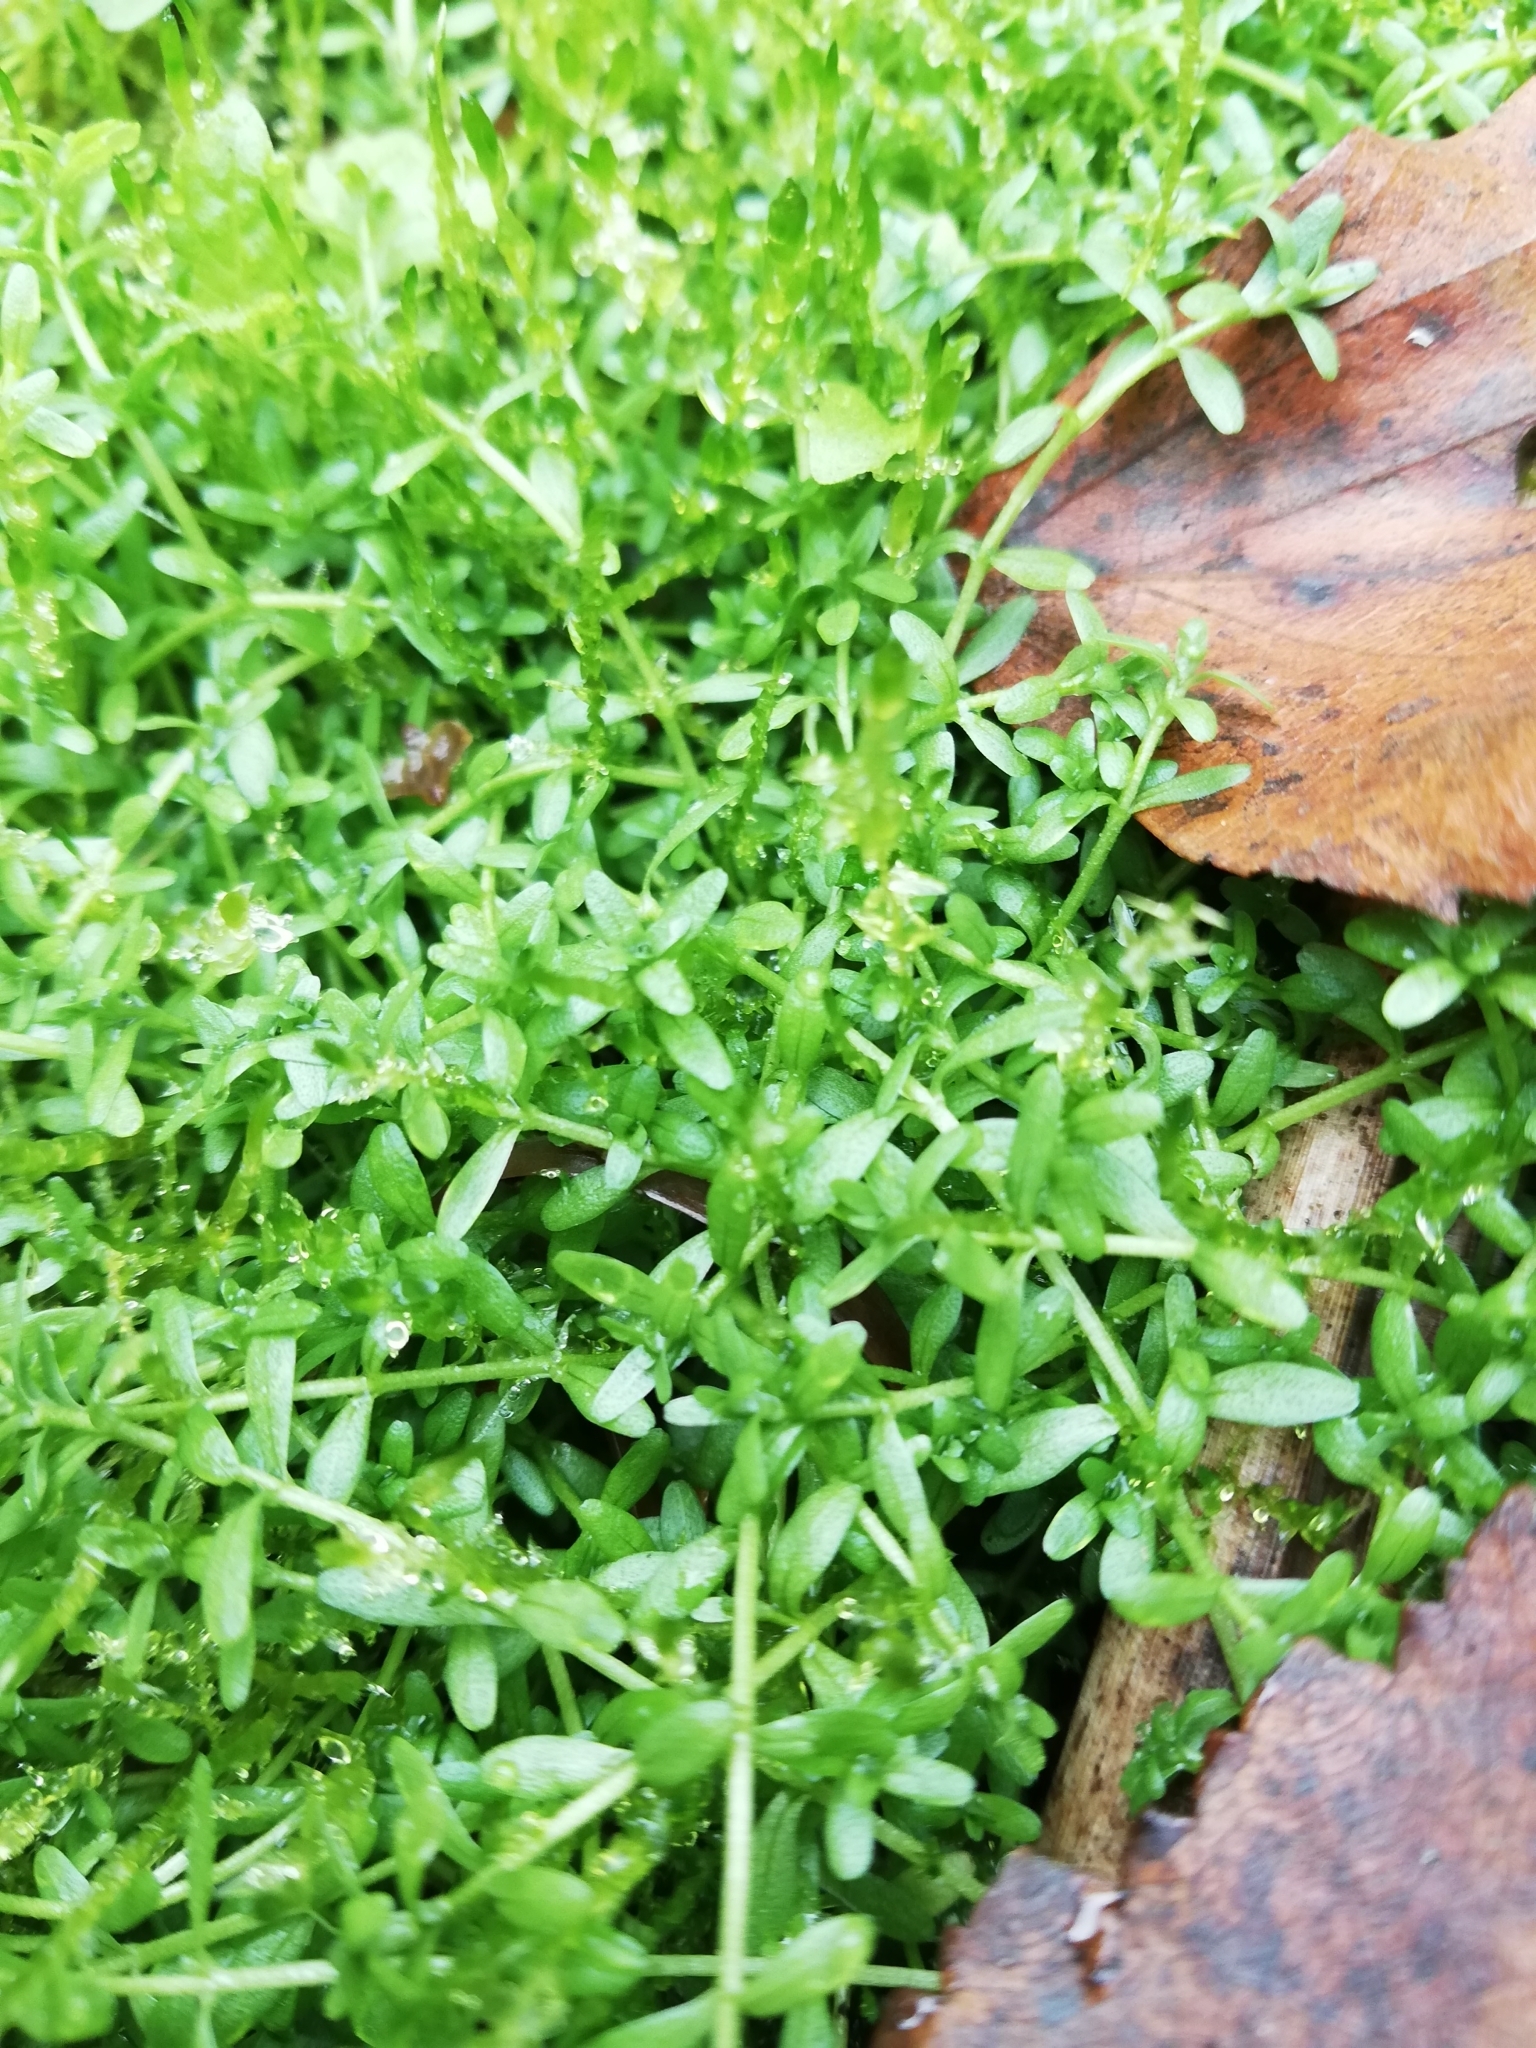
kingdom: Plantae
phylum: Tracheophyta
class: Magnoliopsida
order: Lamiales
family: Plantaginaceae
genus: Callitriche
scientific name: Callitriche palustris
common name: Spring water-starwort
